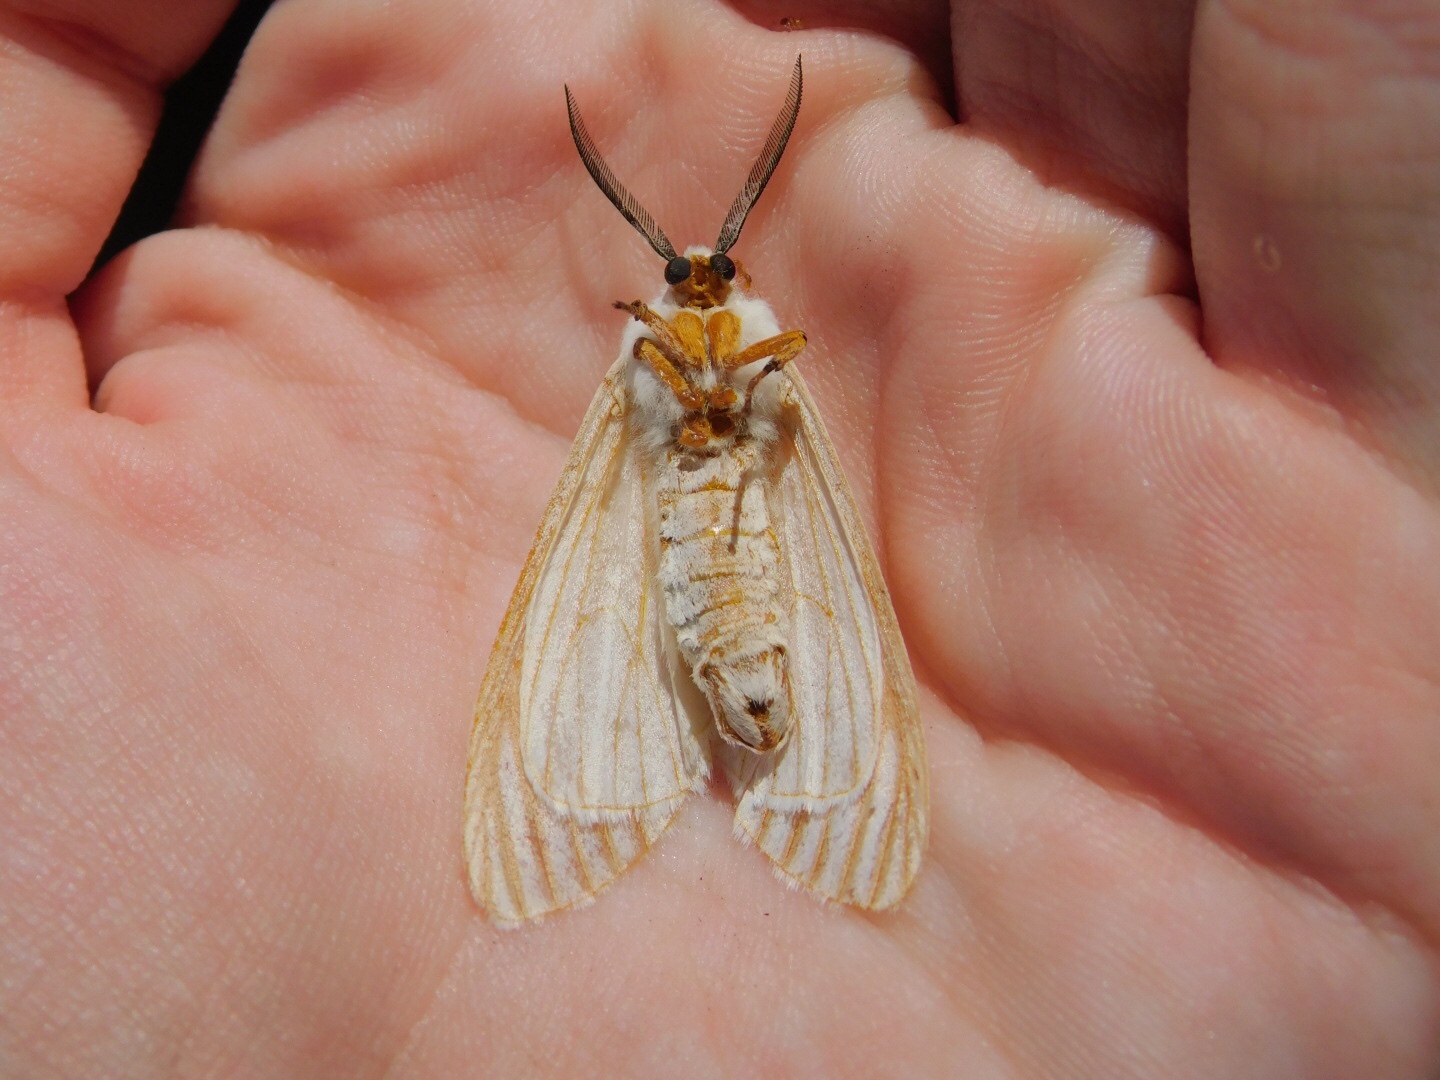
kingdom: Animalia
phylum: Arthropoda
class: Insecta
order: Lepidoptera
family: Erebidae
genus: Seirarctia
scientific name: Seirarctia echo
